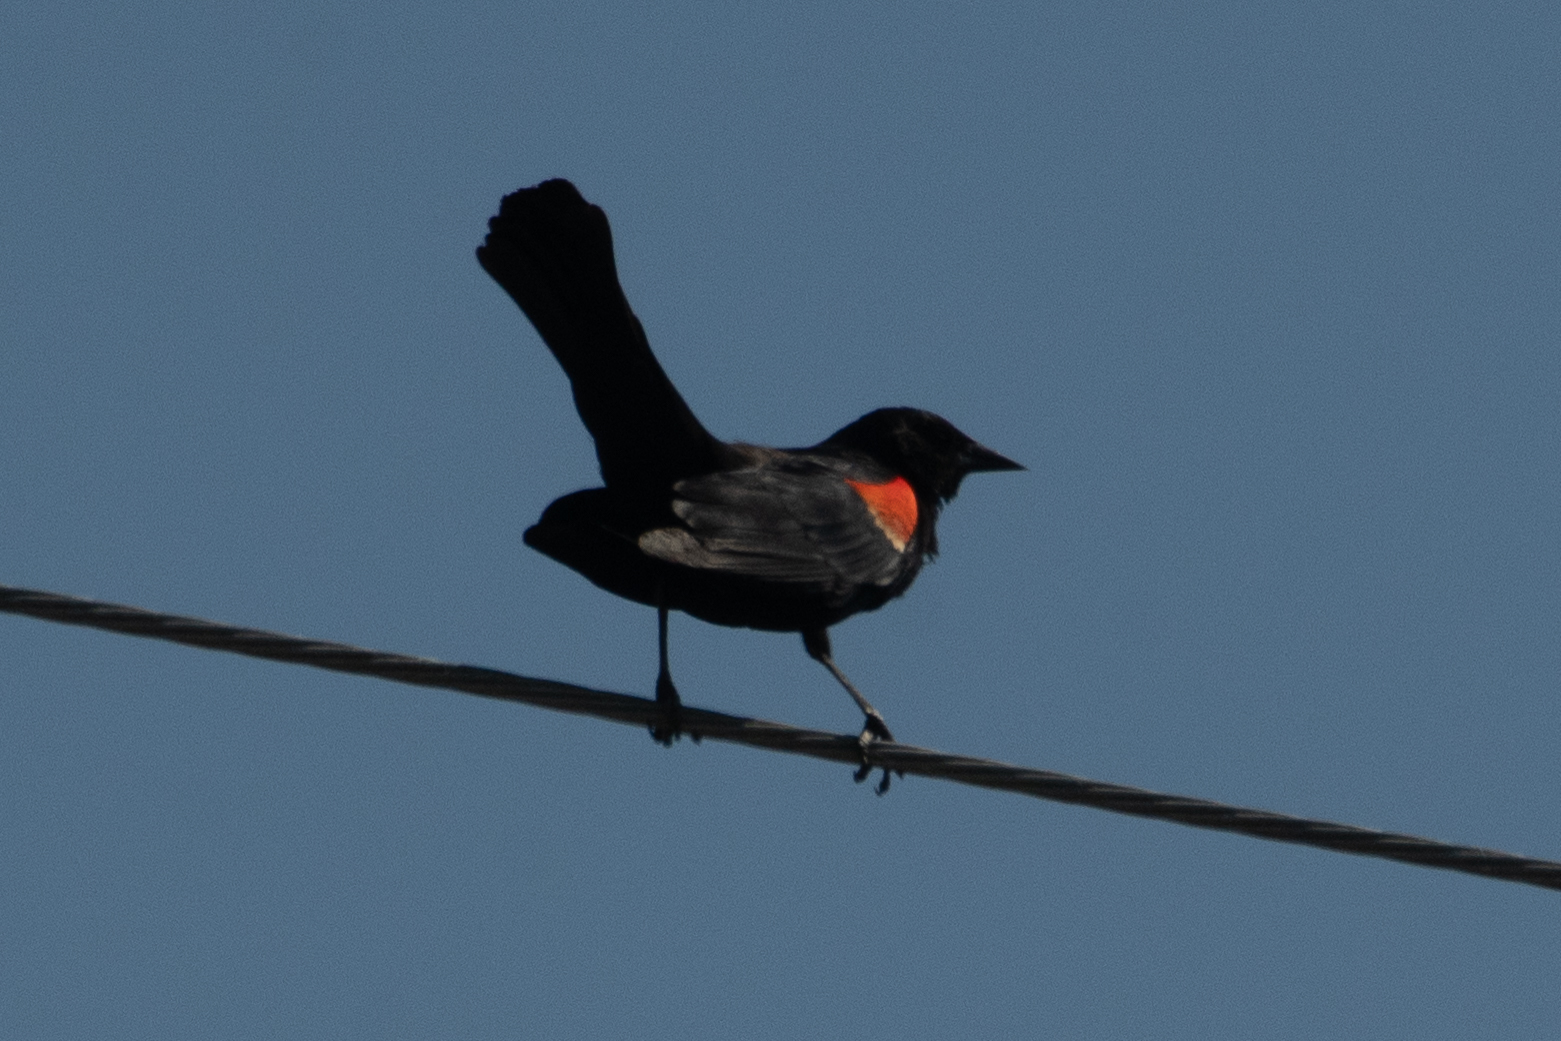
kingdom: Animalia
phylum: Chordata
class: Aves
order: Passeriformes
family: Icteridae
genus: Agelaius
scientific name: Agelaius phoeniceus
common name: Red-winged blackbird
